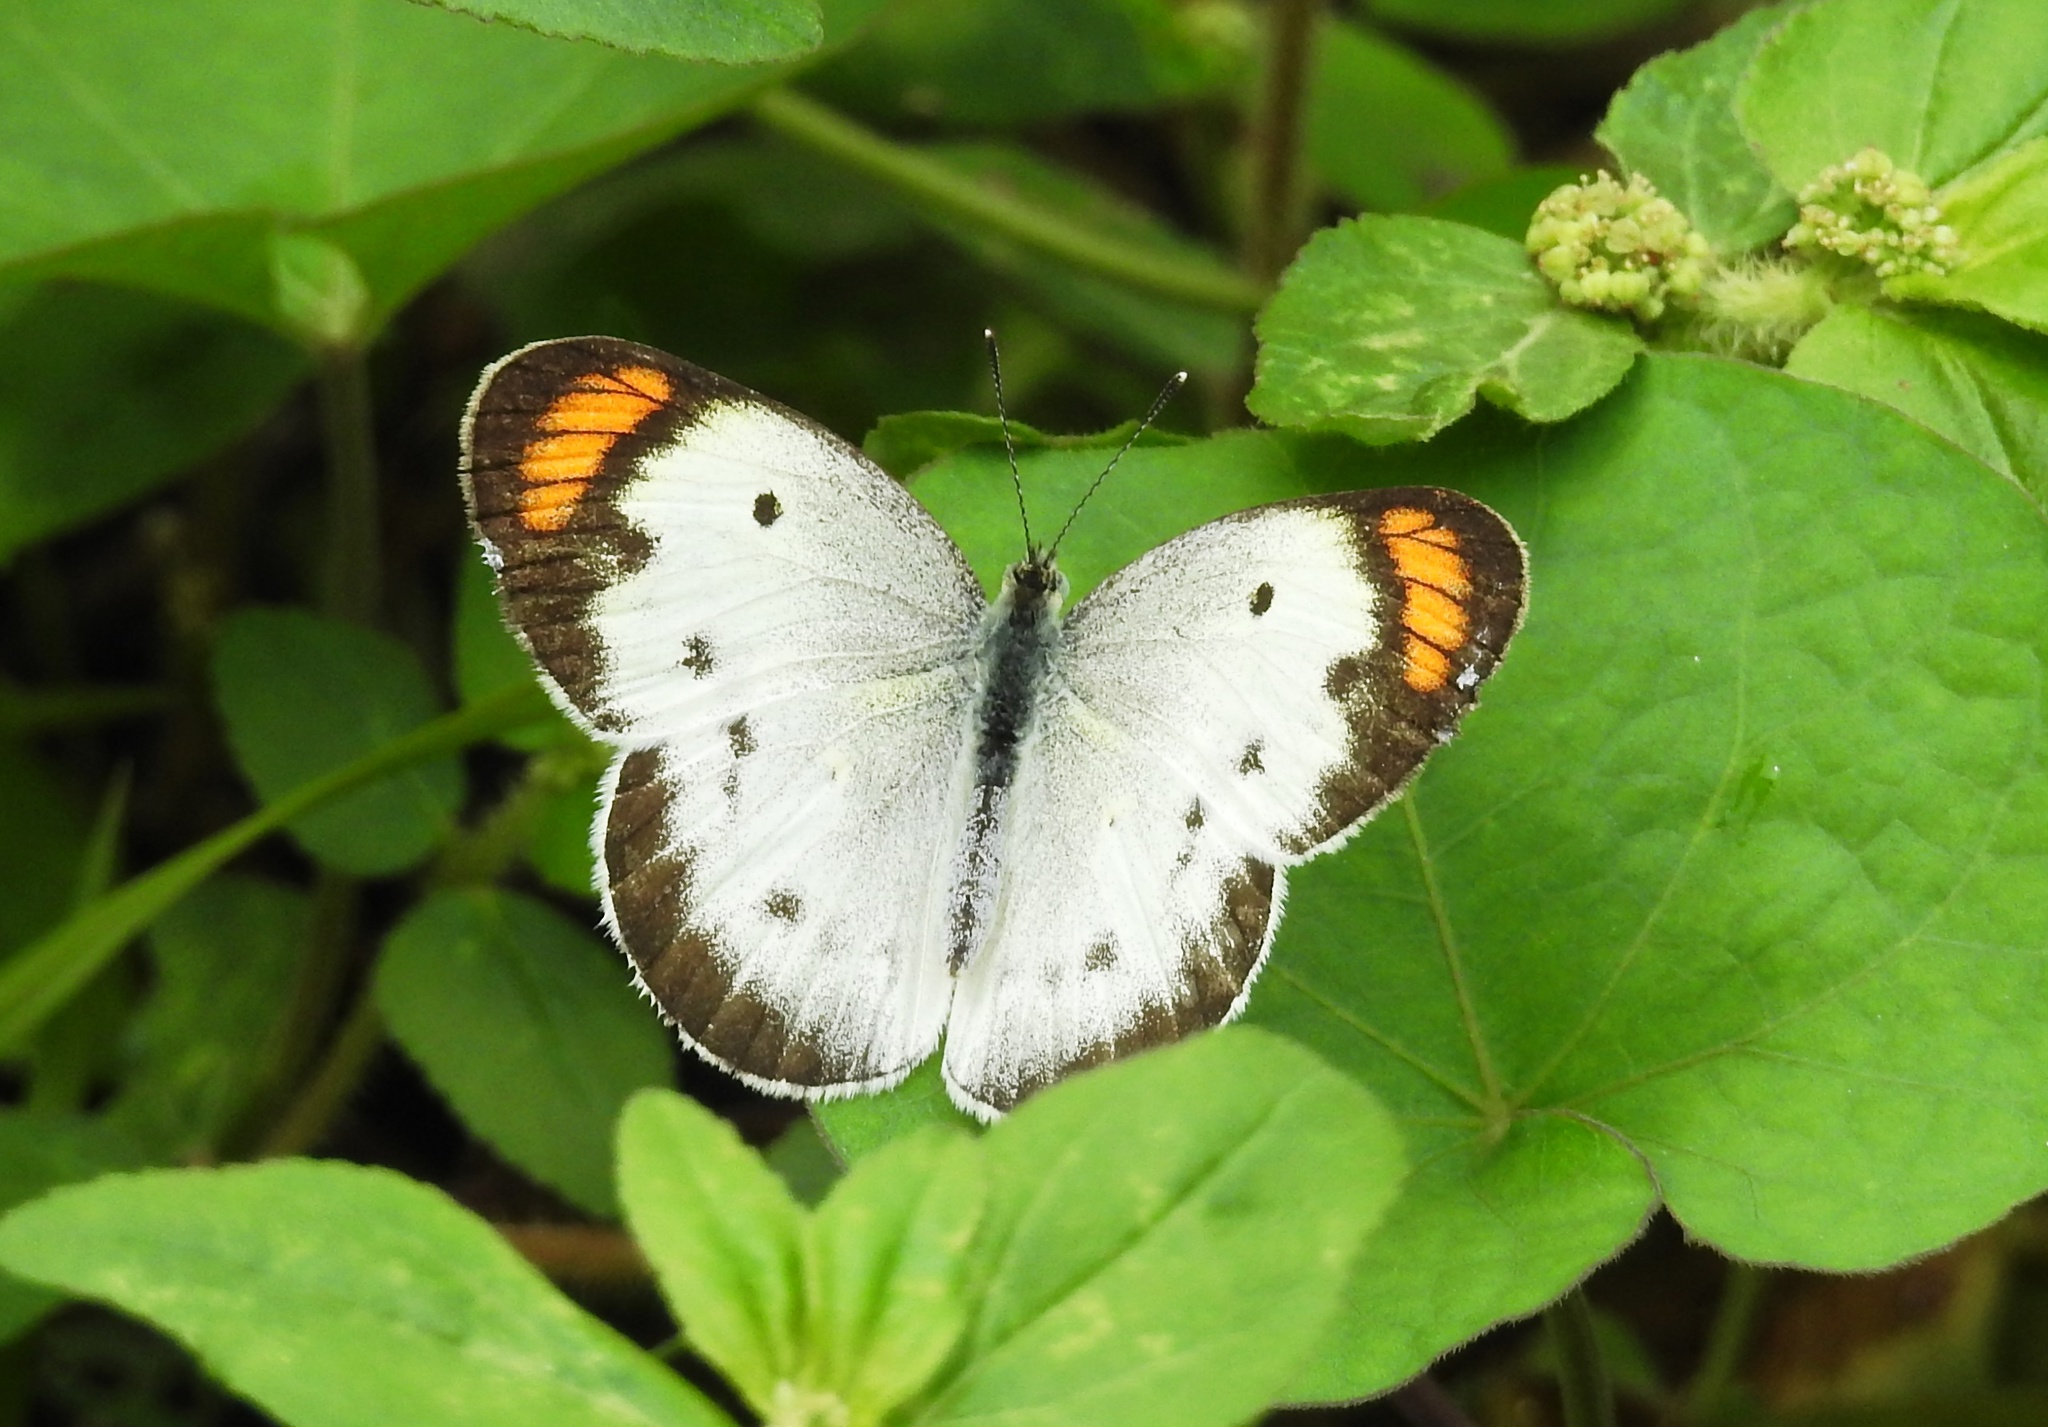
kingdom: Animalia
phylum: Arthropoda
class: Insecta
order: Lepidoptera
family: Pieridae
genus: Colotis
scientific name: Colotis etrida
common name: Little orange tip
